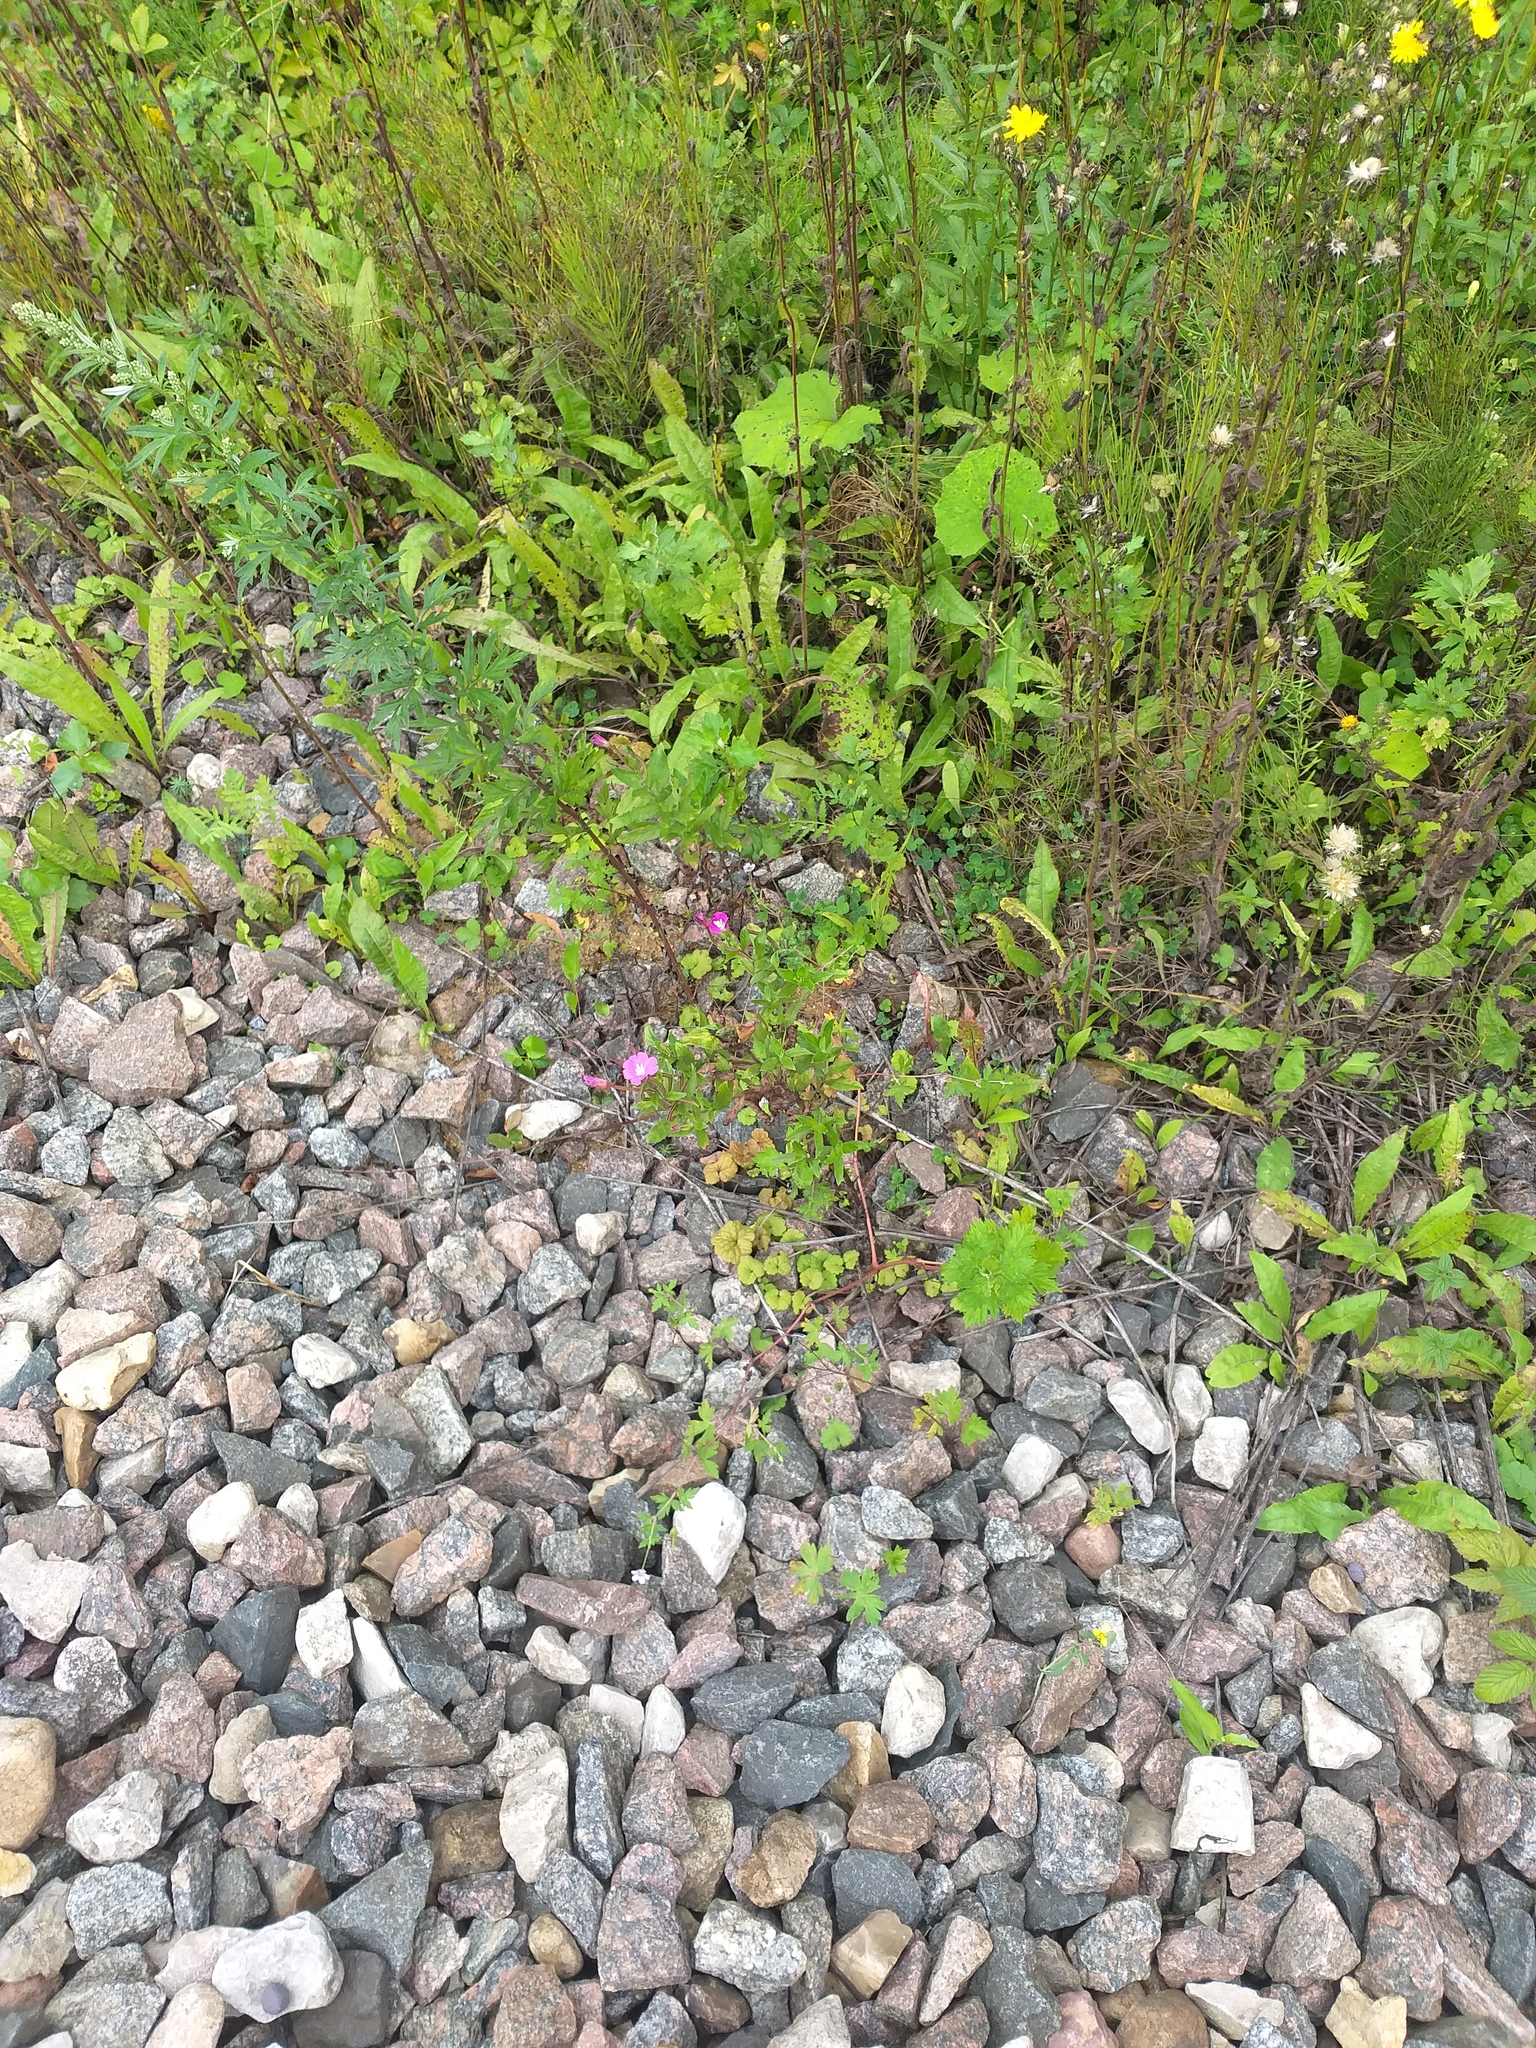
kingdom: Plantae
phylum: Tracheophyta
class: Magnoliopsida
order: Myrtales
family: Onagraceae
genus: Epilobium
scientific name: Epilobium hirsutum
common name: Great willowherb
